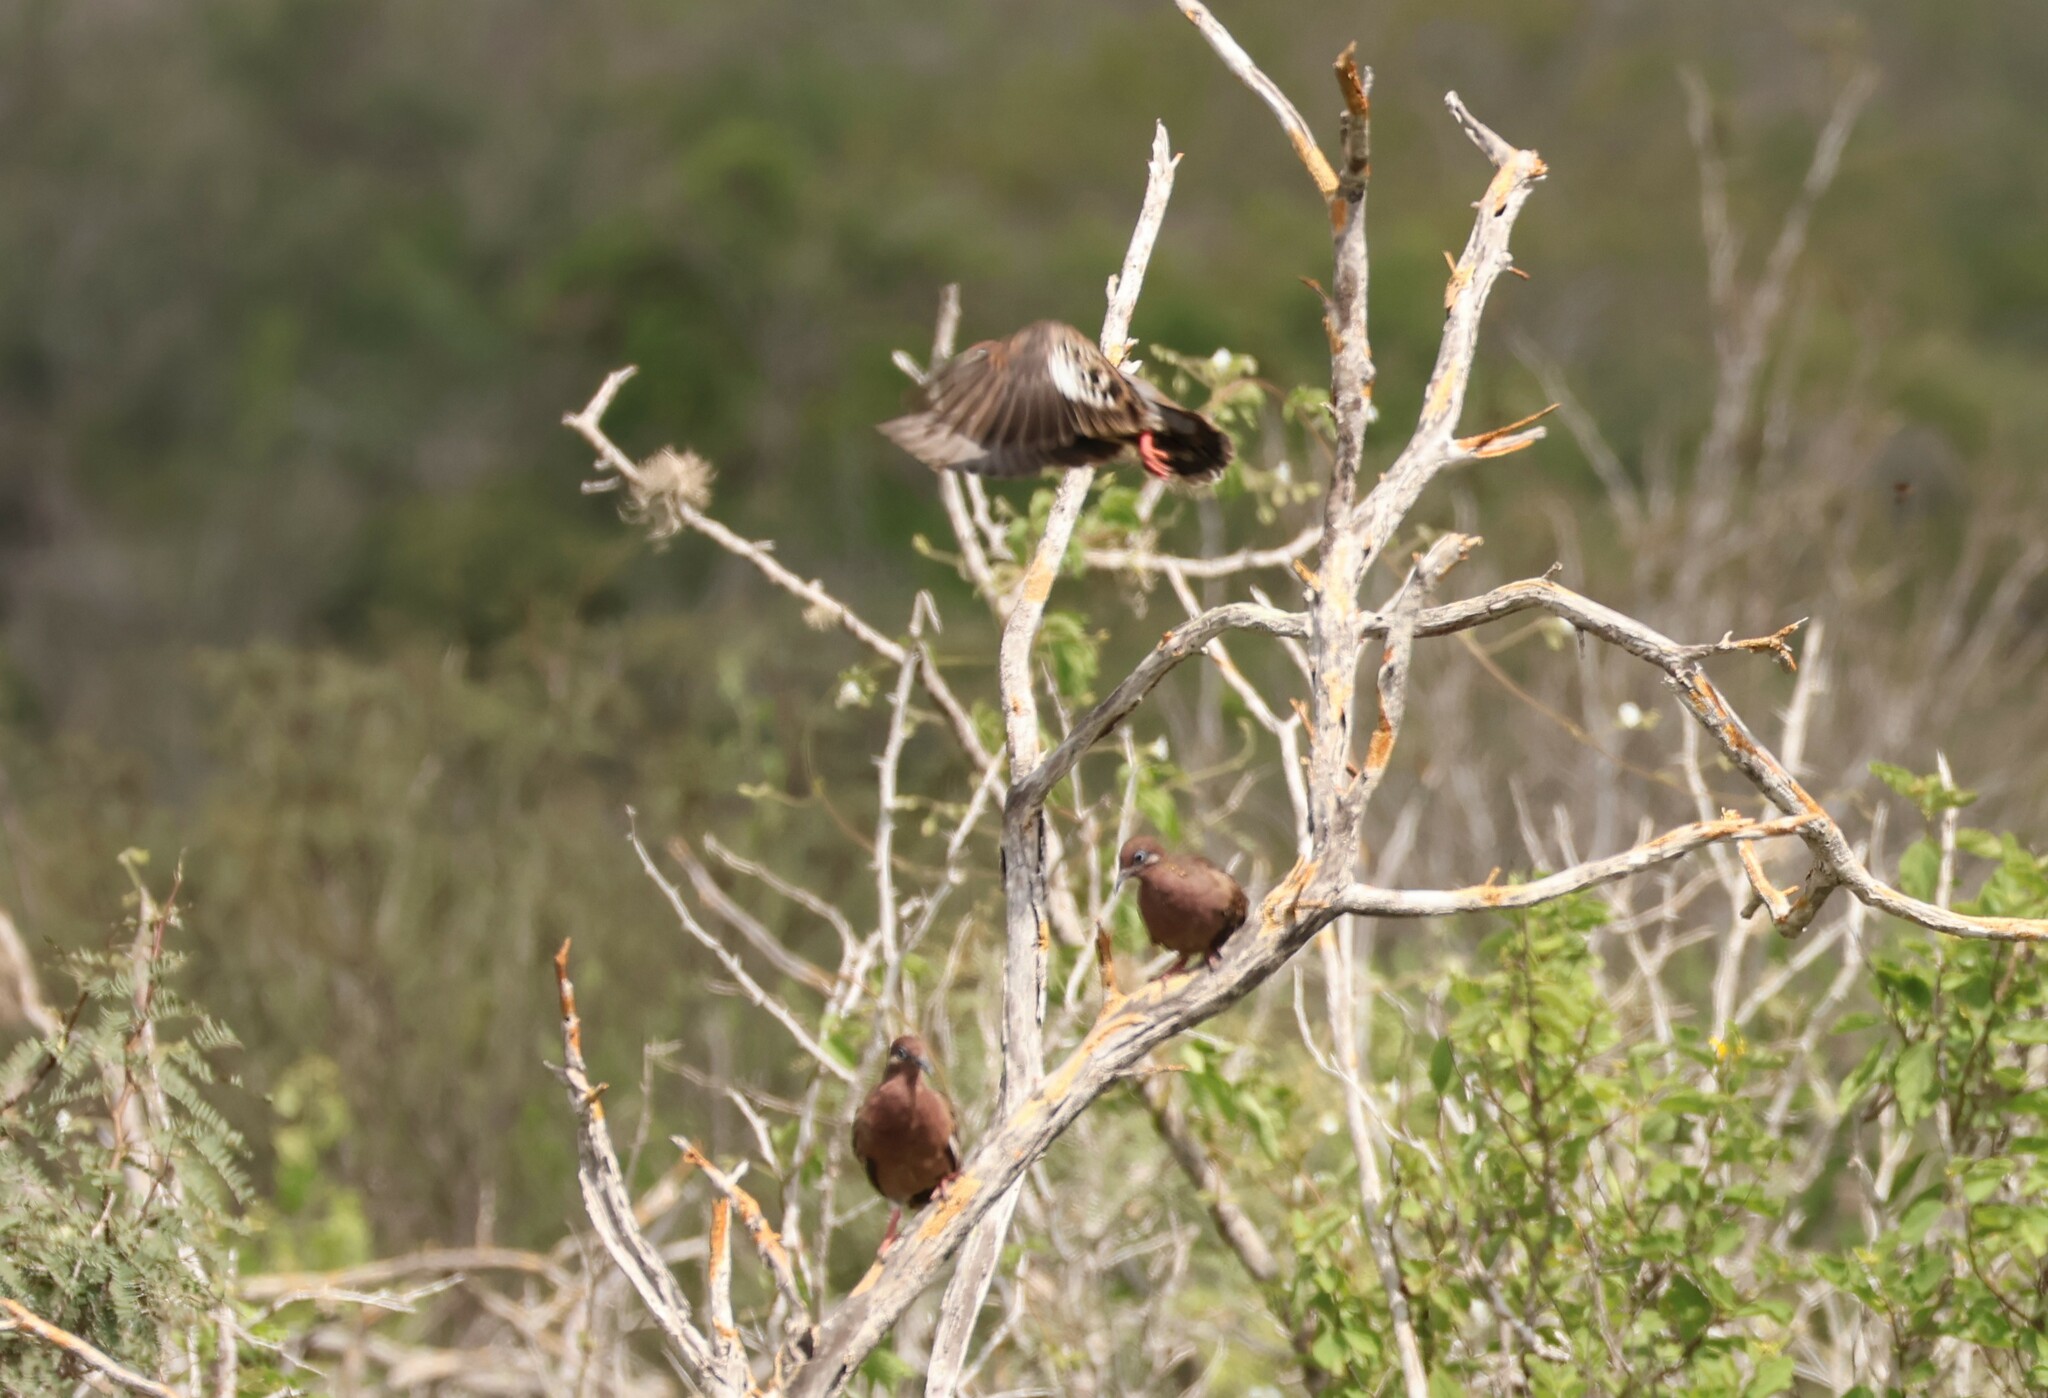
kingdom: Animalia
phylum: Chordata
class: Aves
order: Columbiformes
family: Columbidae
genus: Zenaida
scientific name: Zenaida galapagoensis
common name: Galapagos dove
